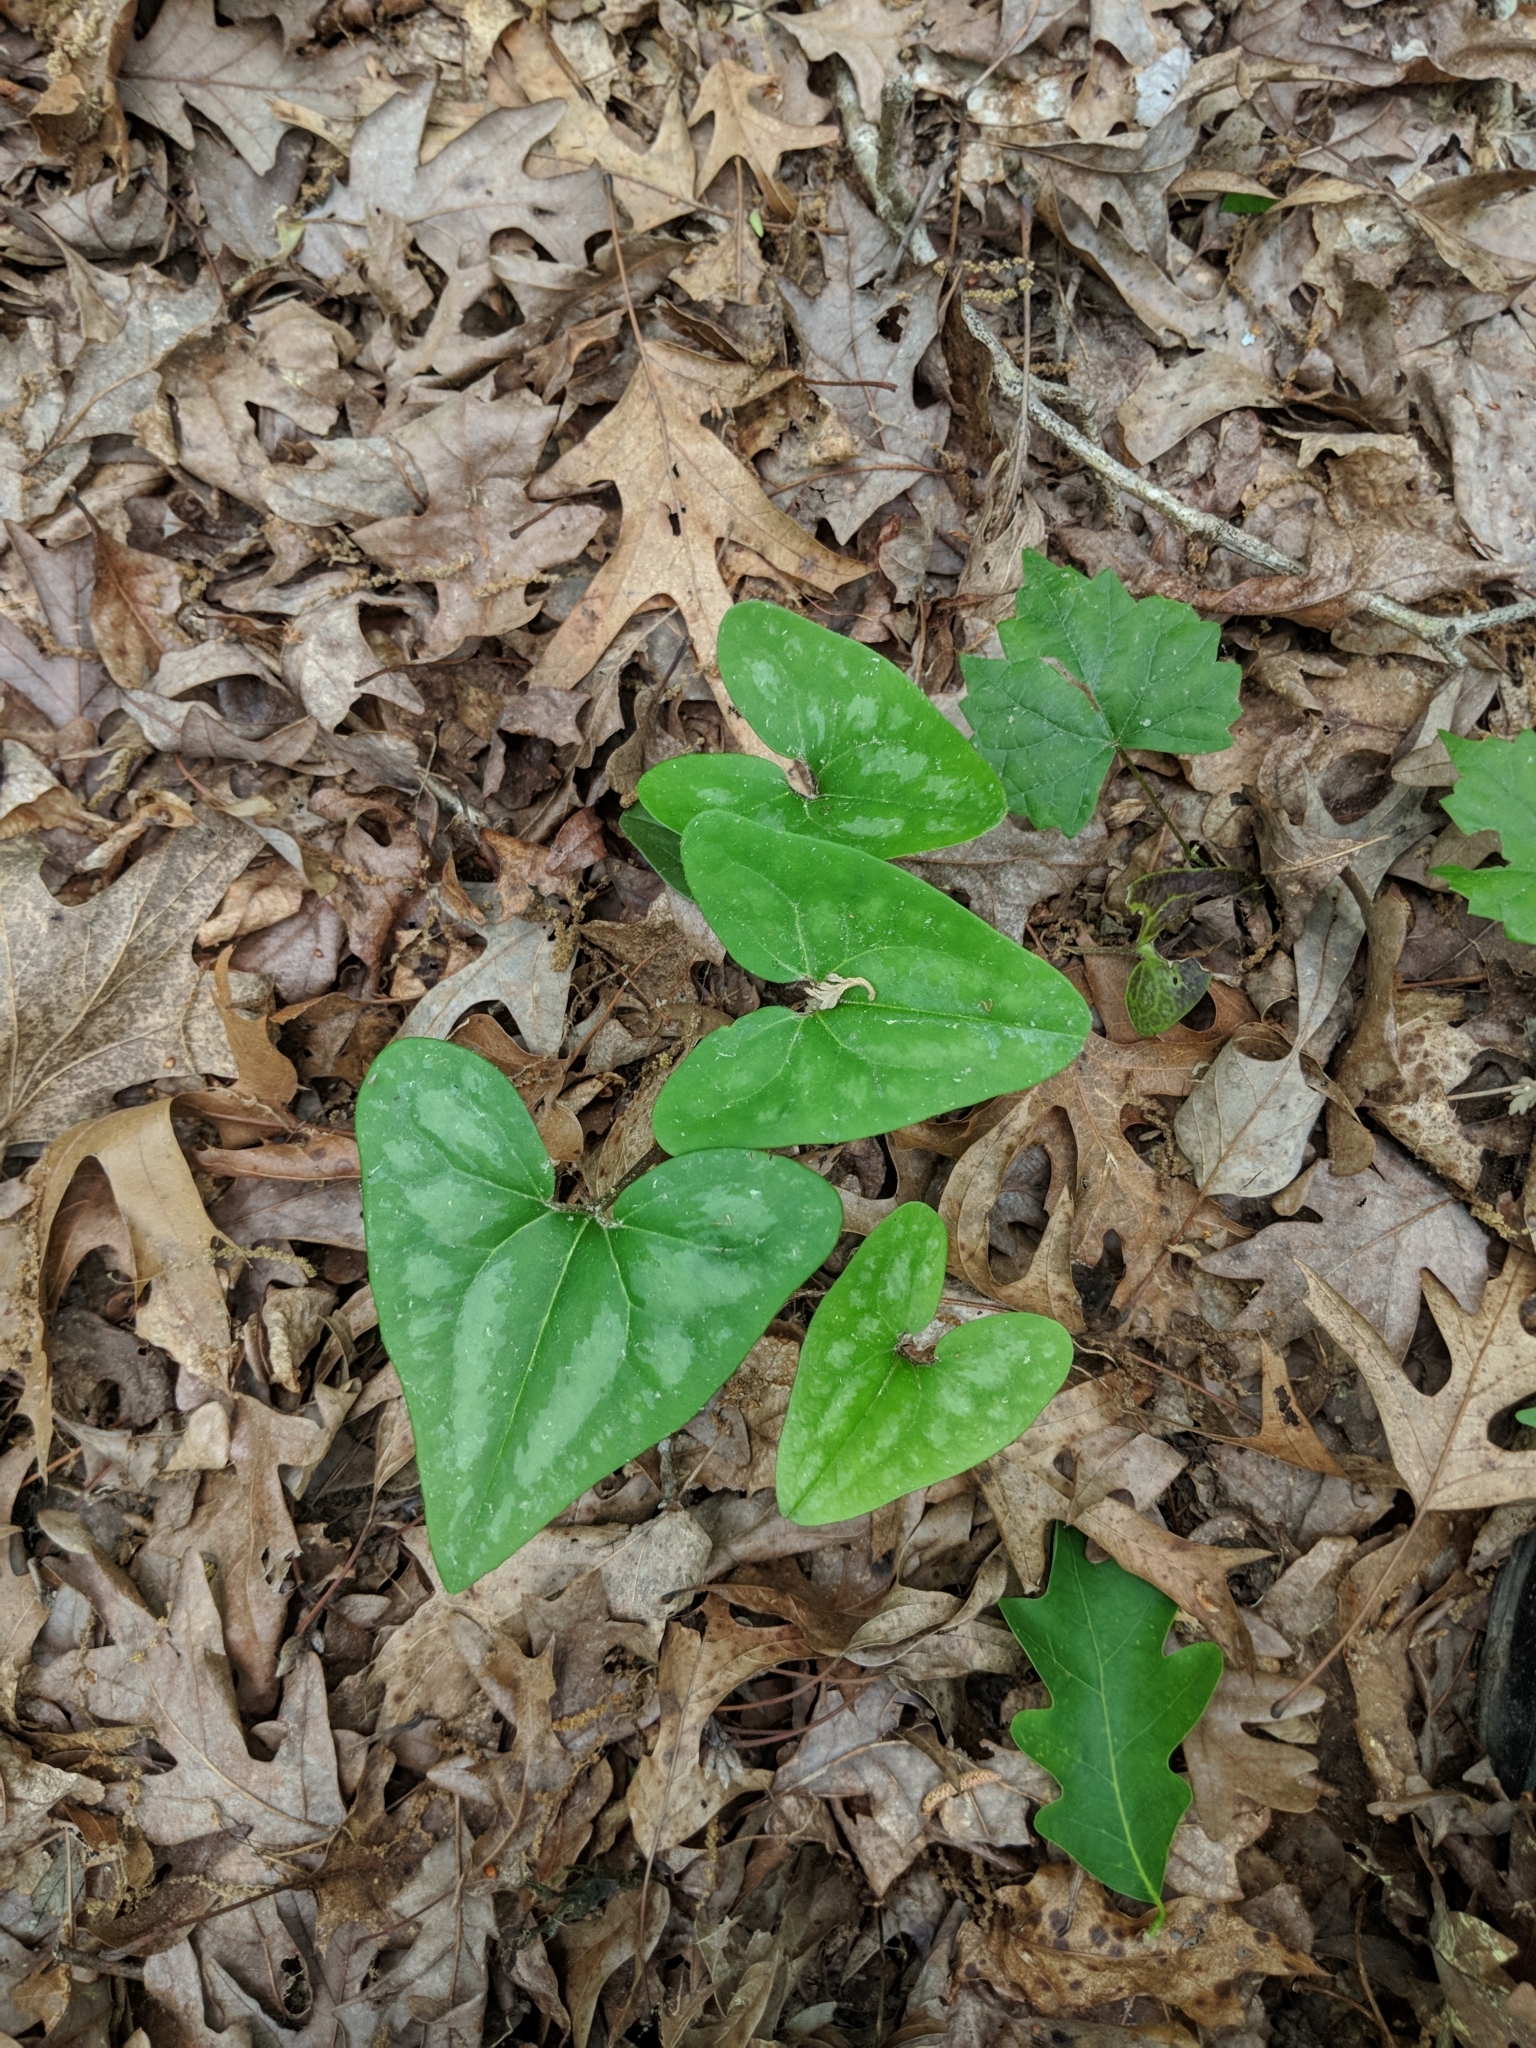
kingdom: Plantae
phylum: Tracheophyta
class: Magnoliopsida
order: Piperales
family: Aristolochiaceae
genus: Hexastylis
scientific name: Hexastylis arifolia
